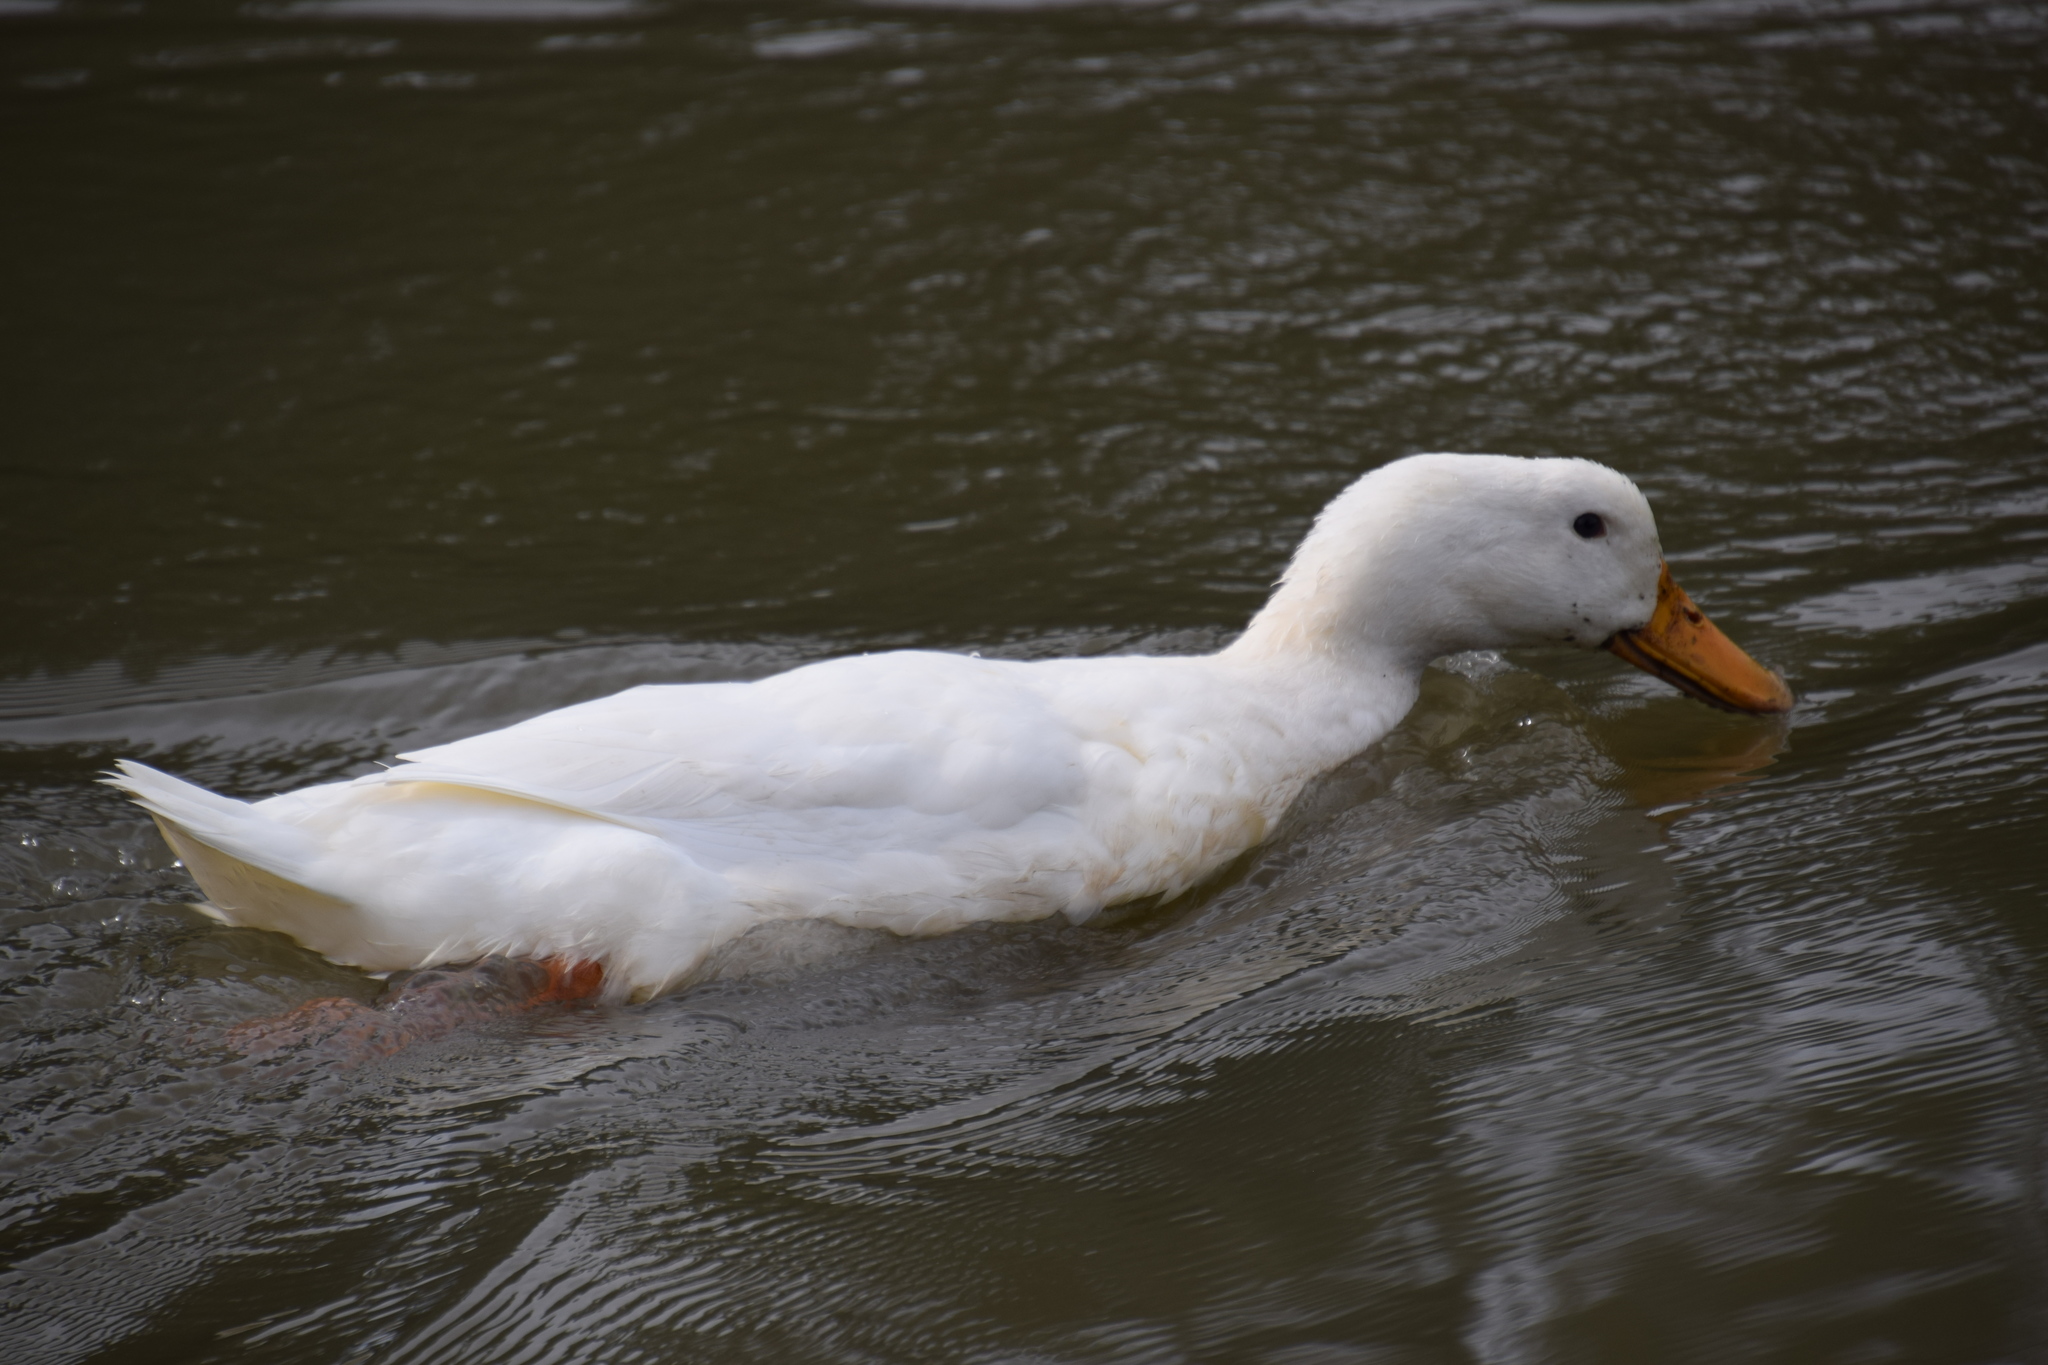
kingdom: Animalia
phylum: Chordata
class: Aves
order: Anseriformes
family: Anatidae
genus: Anas
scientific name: Anas platyrhynchos
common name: Mallard
